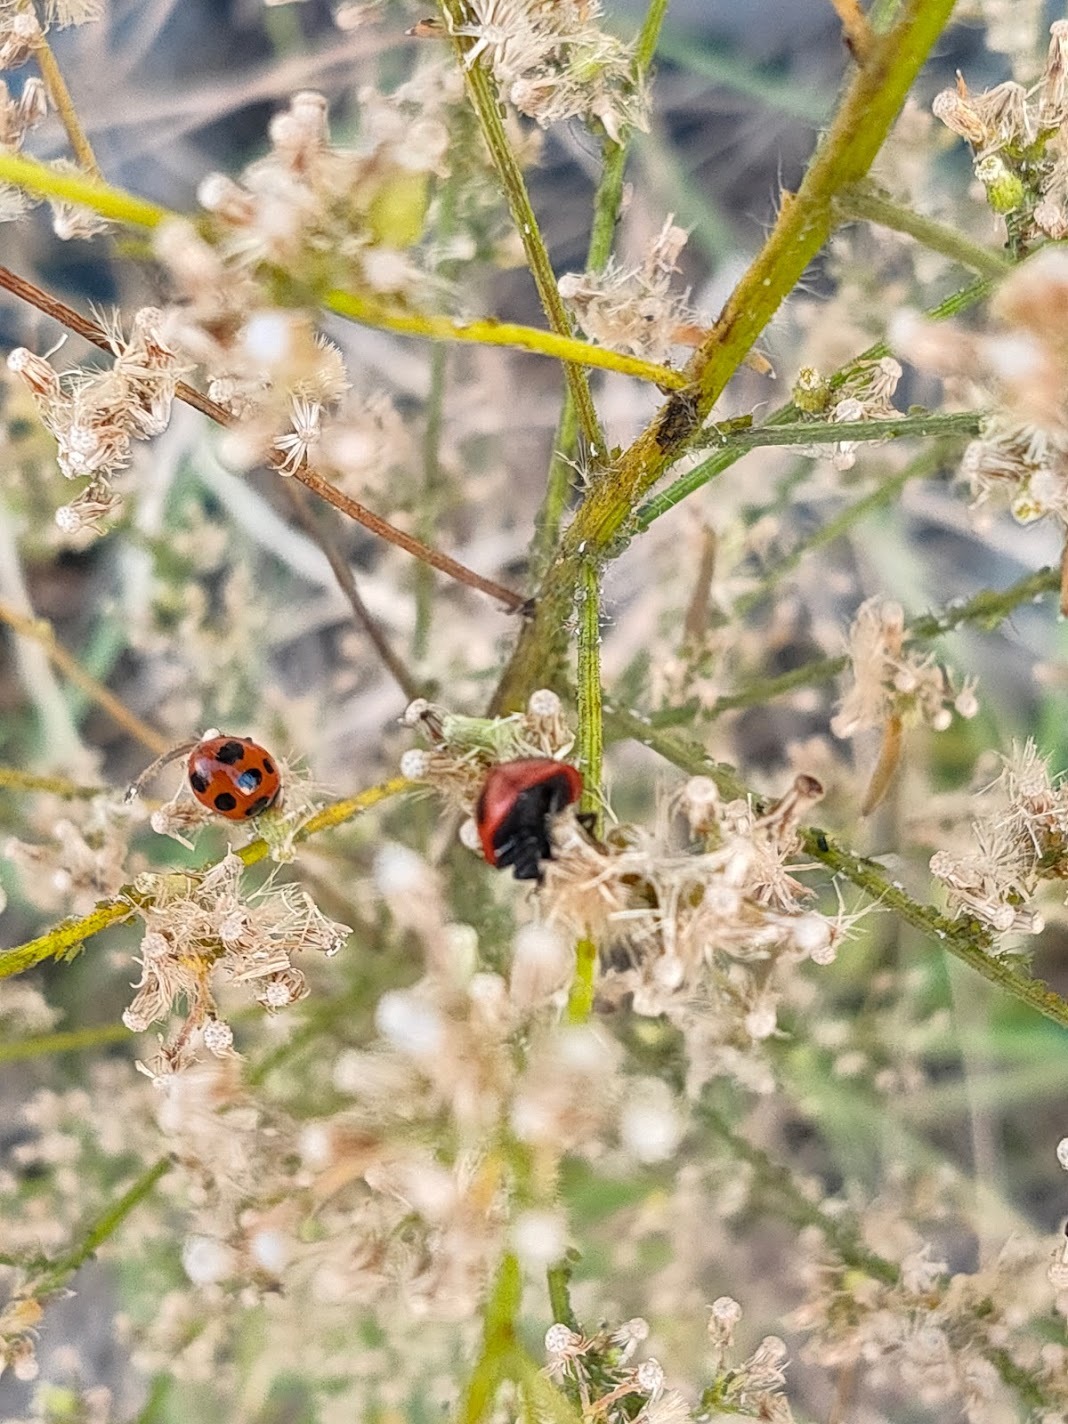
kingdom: Animalia
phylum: Arthropoda
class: Insecta
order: Coleoptera
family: Coccinellidae
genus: Coccinella
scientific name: Coccinella septempunctata
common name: Sevenspotted lady beetle
